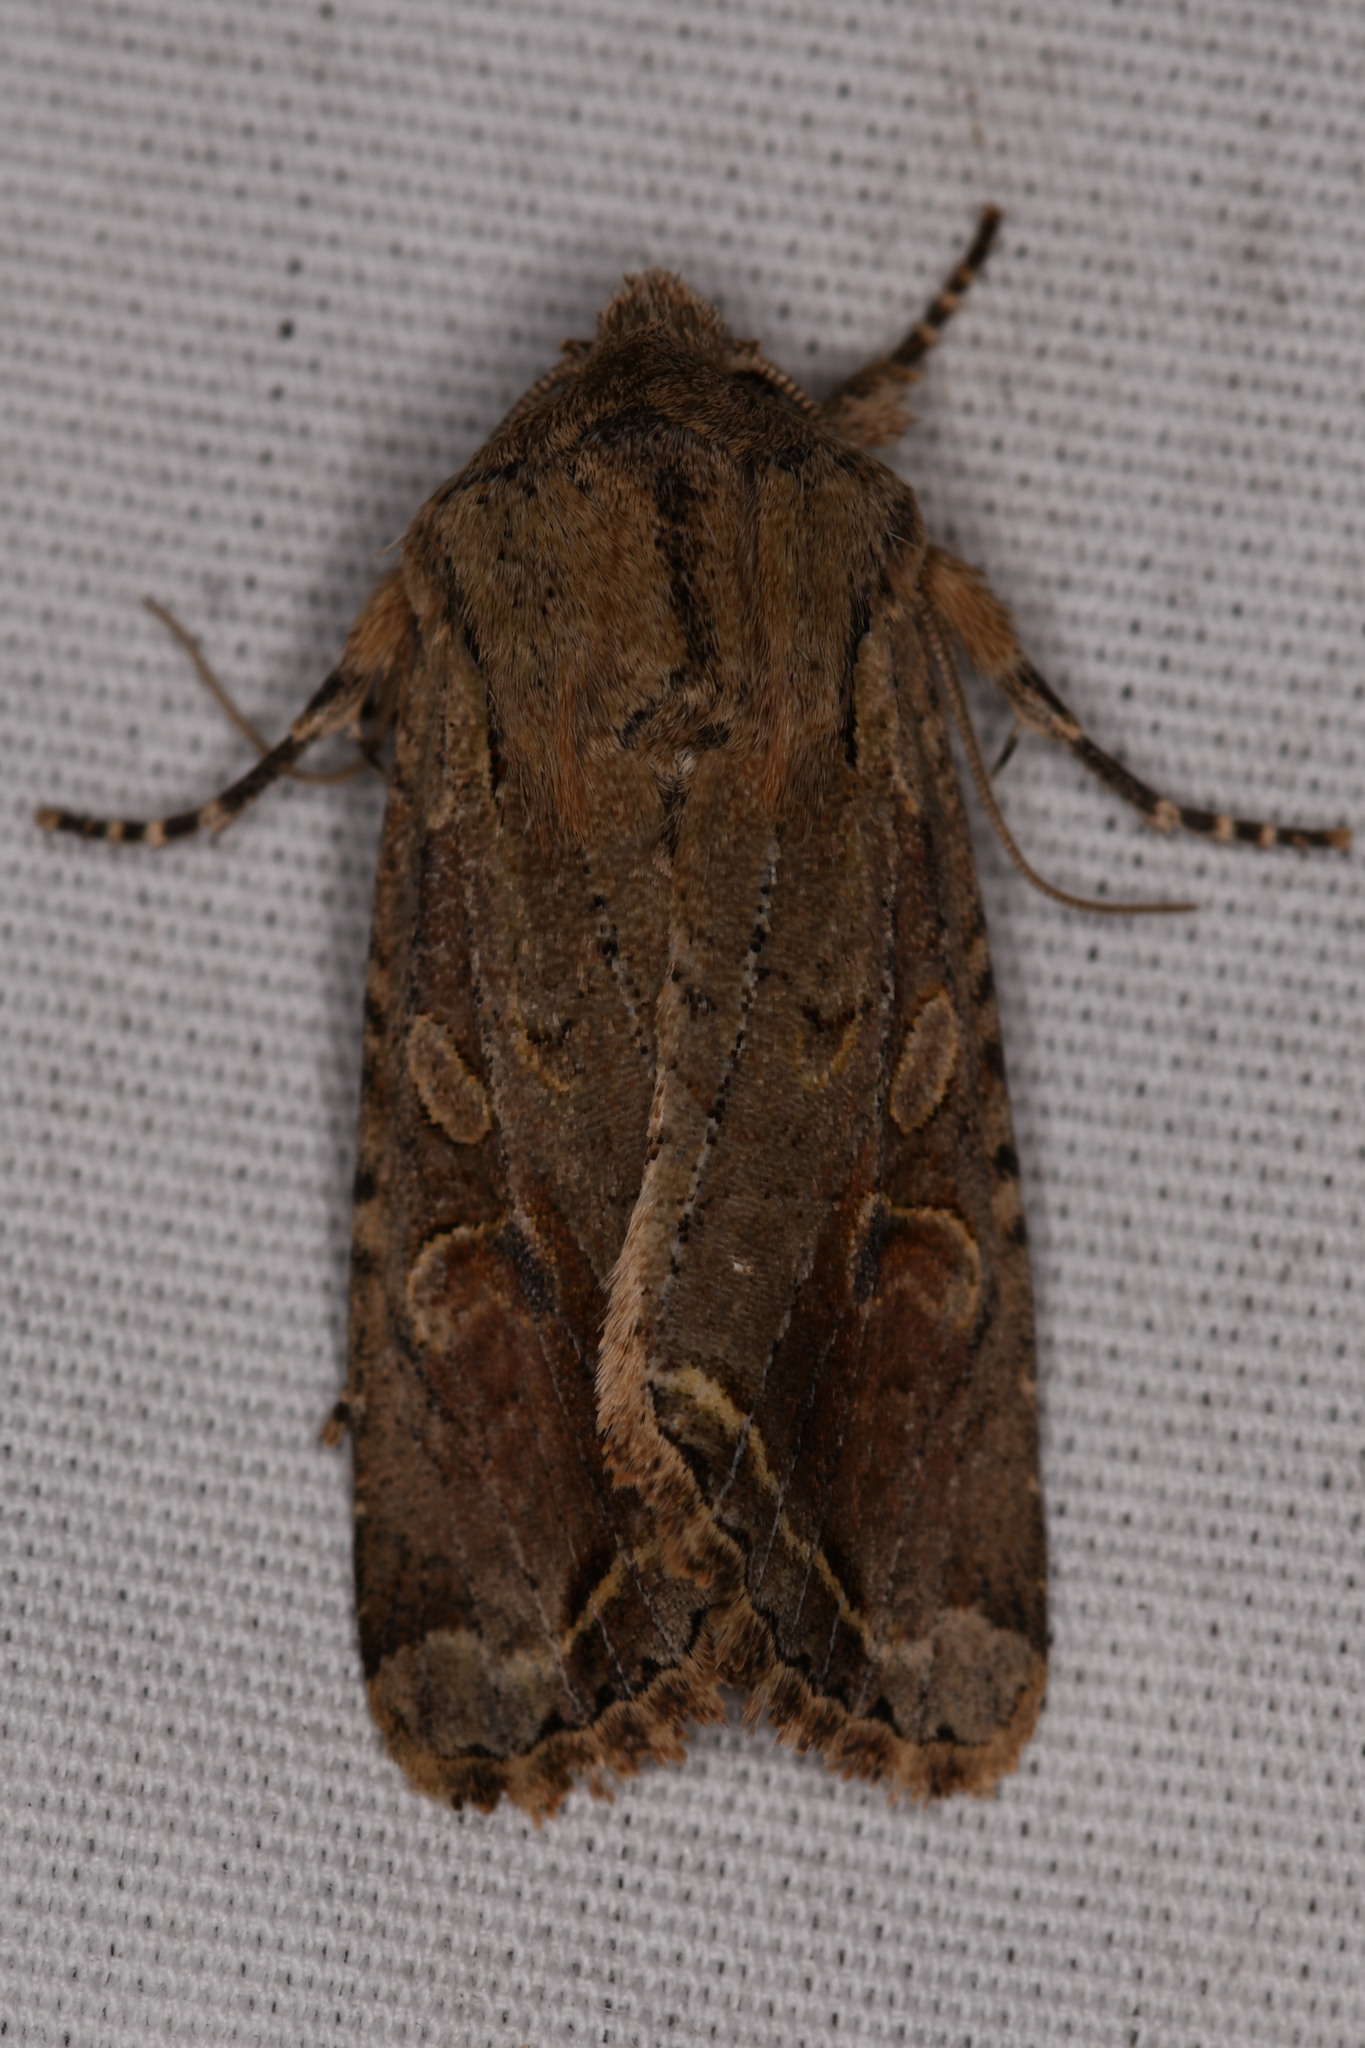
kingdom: Animalia
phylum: Arthropoda
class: Insecta
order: Lepidoptera
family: Noctuidae
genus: Egira
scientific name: Egira rubrica
